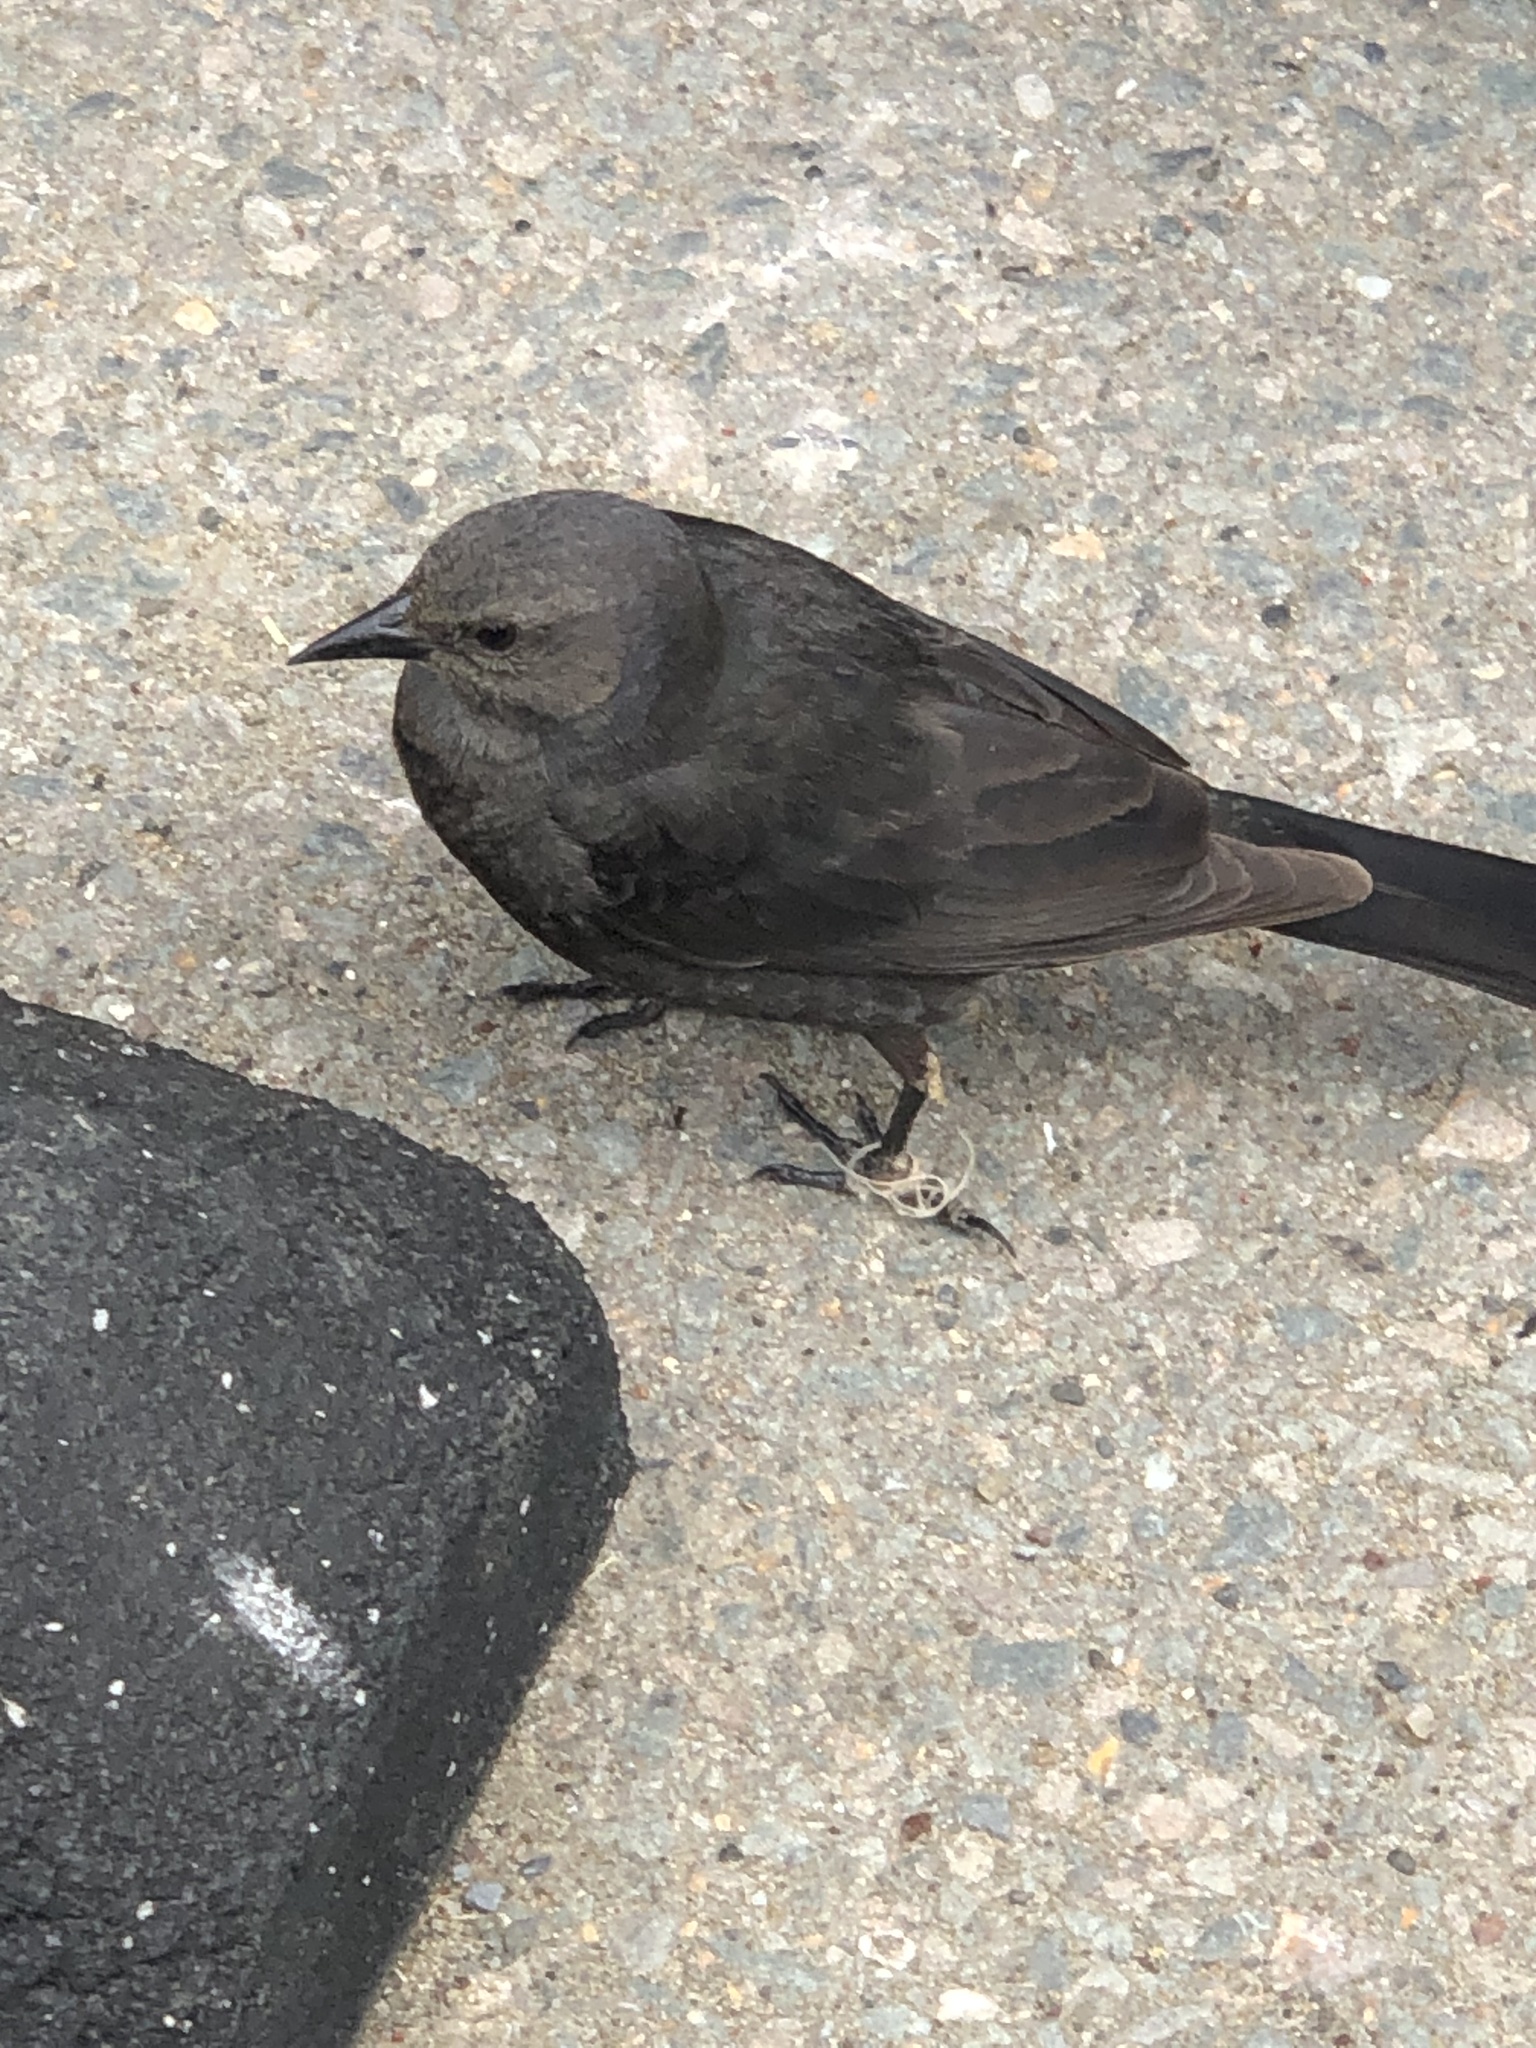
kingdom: Animalia
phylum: Chordata
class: Aves
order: Passeriformes
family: Icteridae
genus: Euphagus
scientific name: Euphagus cyanocephalus
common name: Brewer's blackbird
